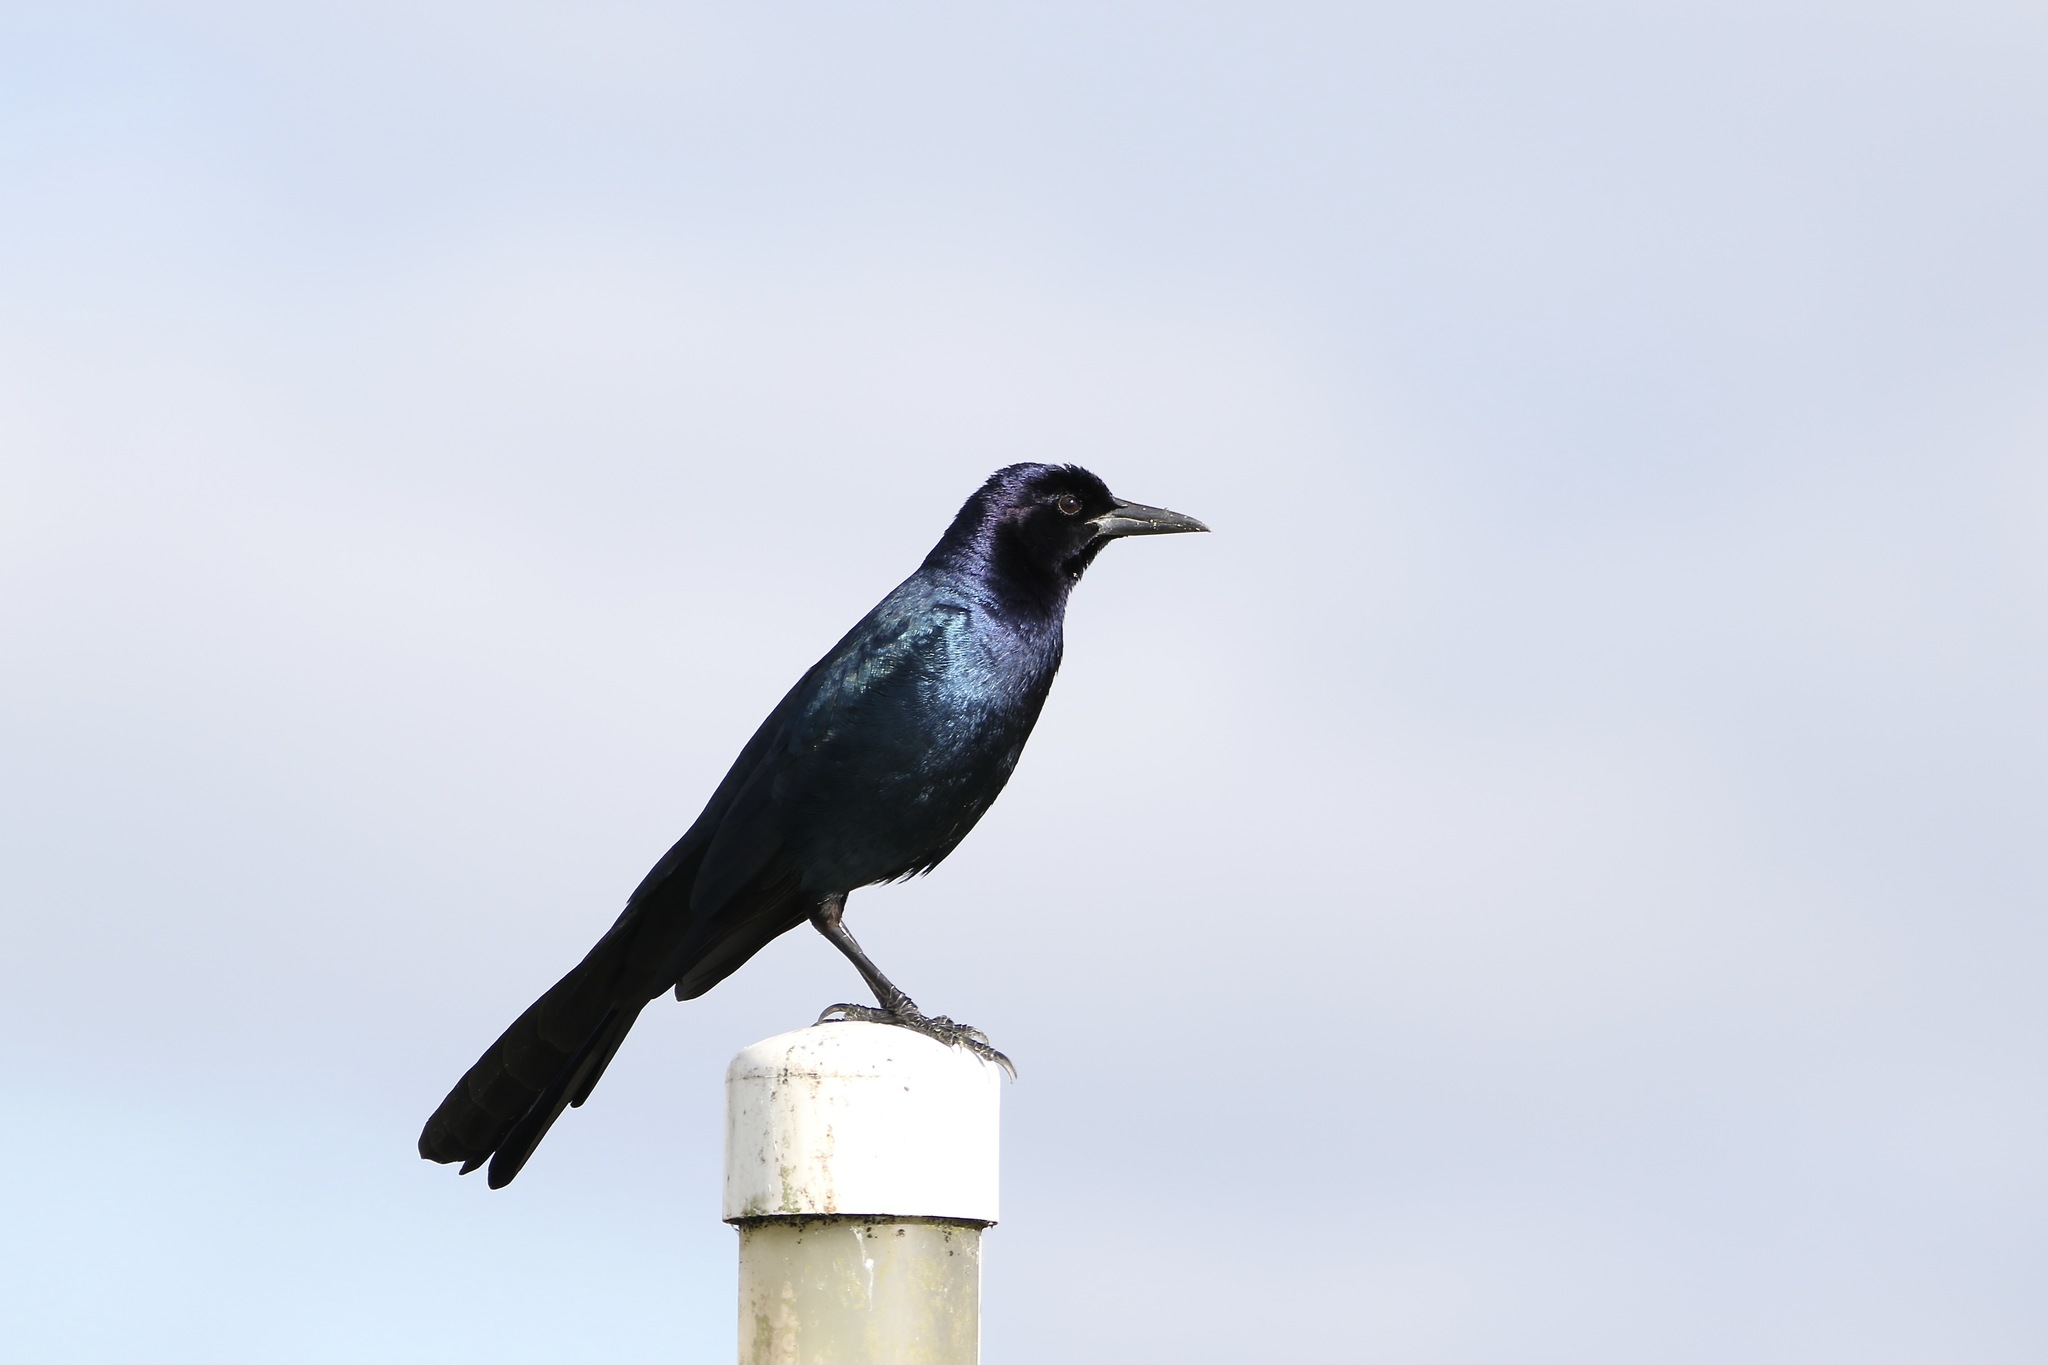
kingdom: Animalia
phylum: Chordata
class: Aves
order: Passeriformes
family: Icteridae
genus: Quiscalus
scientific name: Quiscalus major
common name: Boat-tailed grackle
